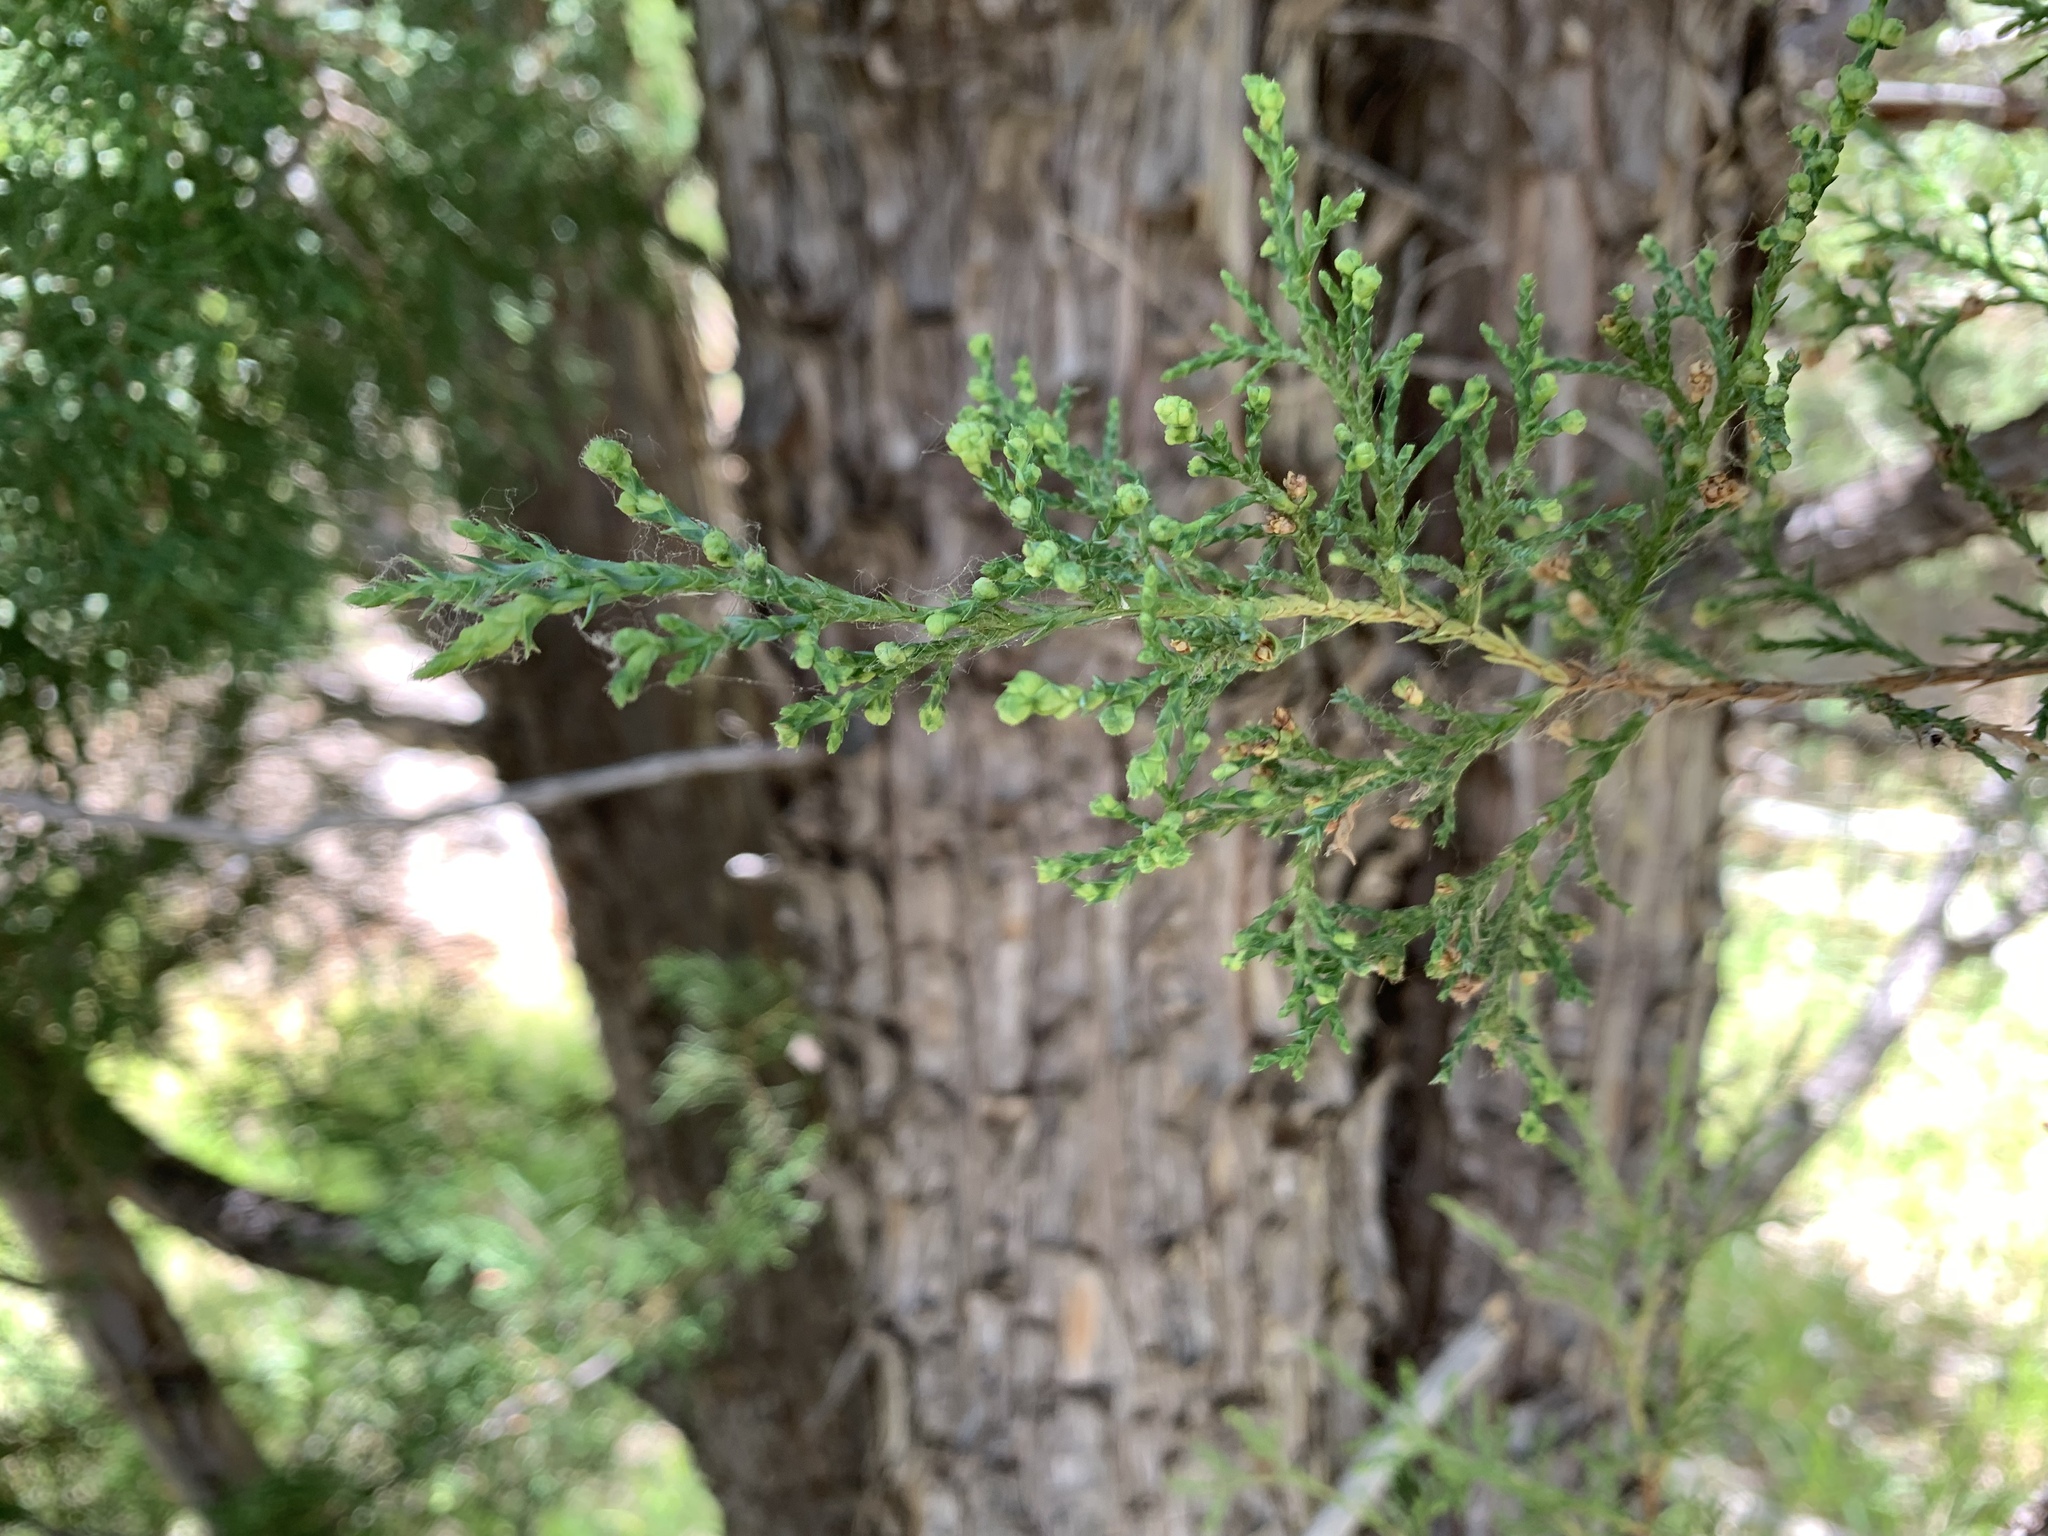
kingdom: Plantae
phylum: Tracheophyta
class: Pinopsida
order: Pinales
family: Cupressaceae
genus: Juniperus
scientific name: Juniperus scopulorum
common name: Rocky mountain juniper
